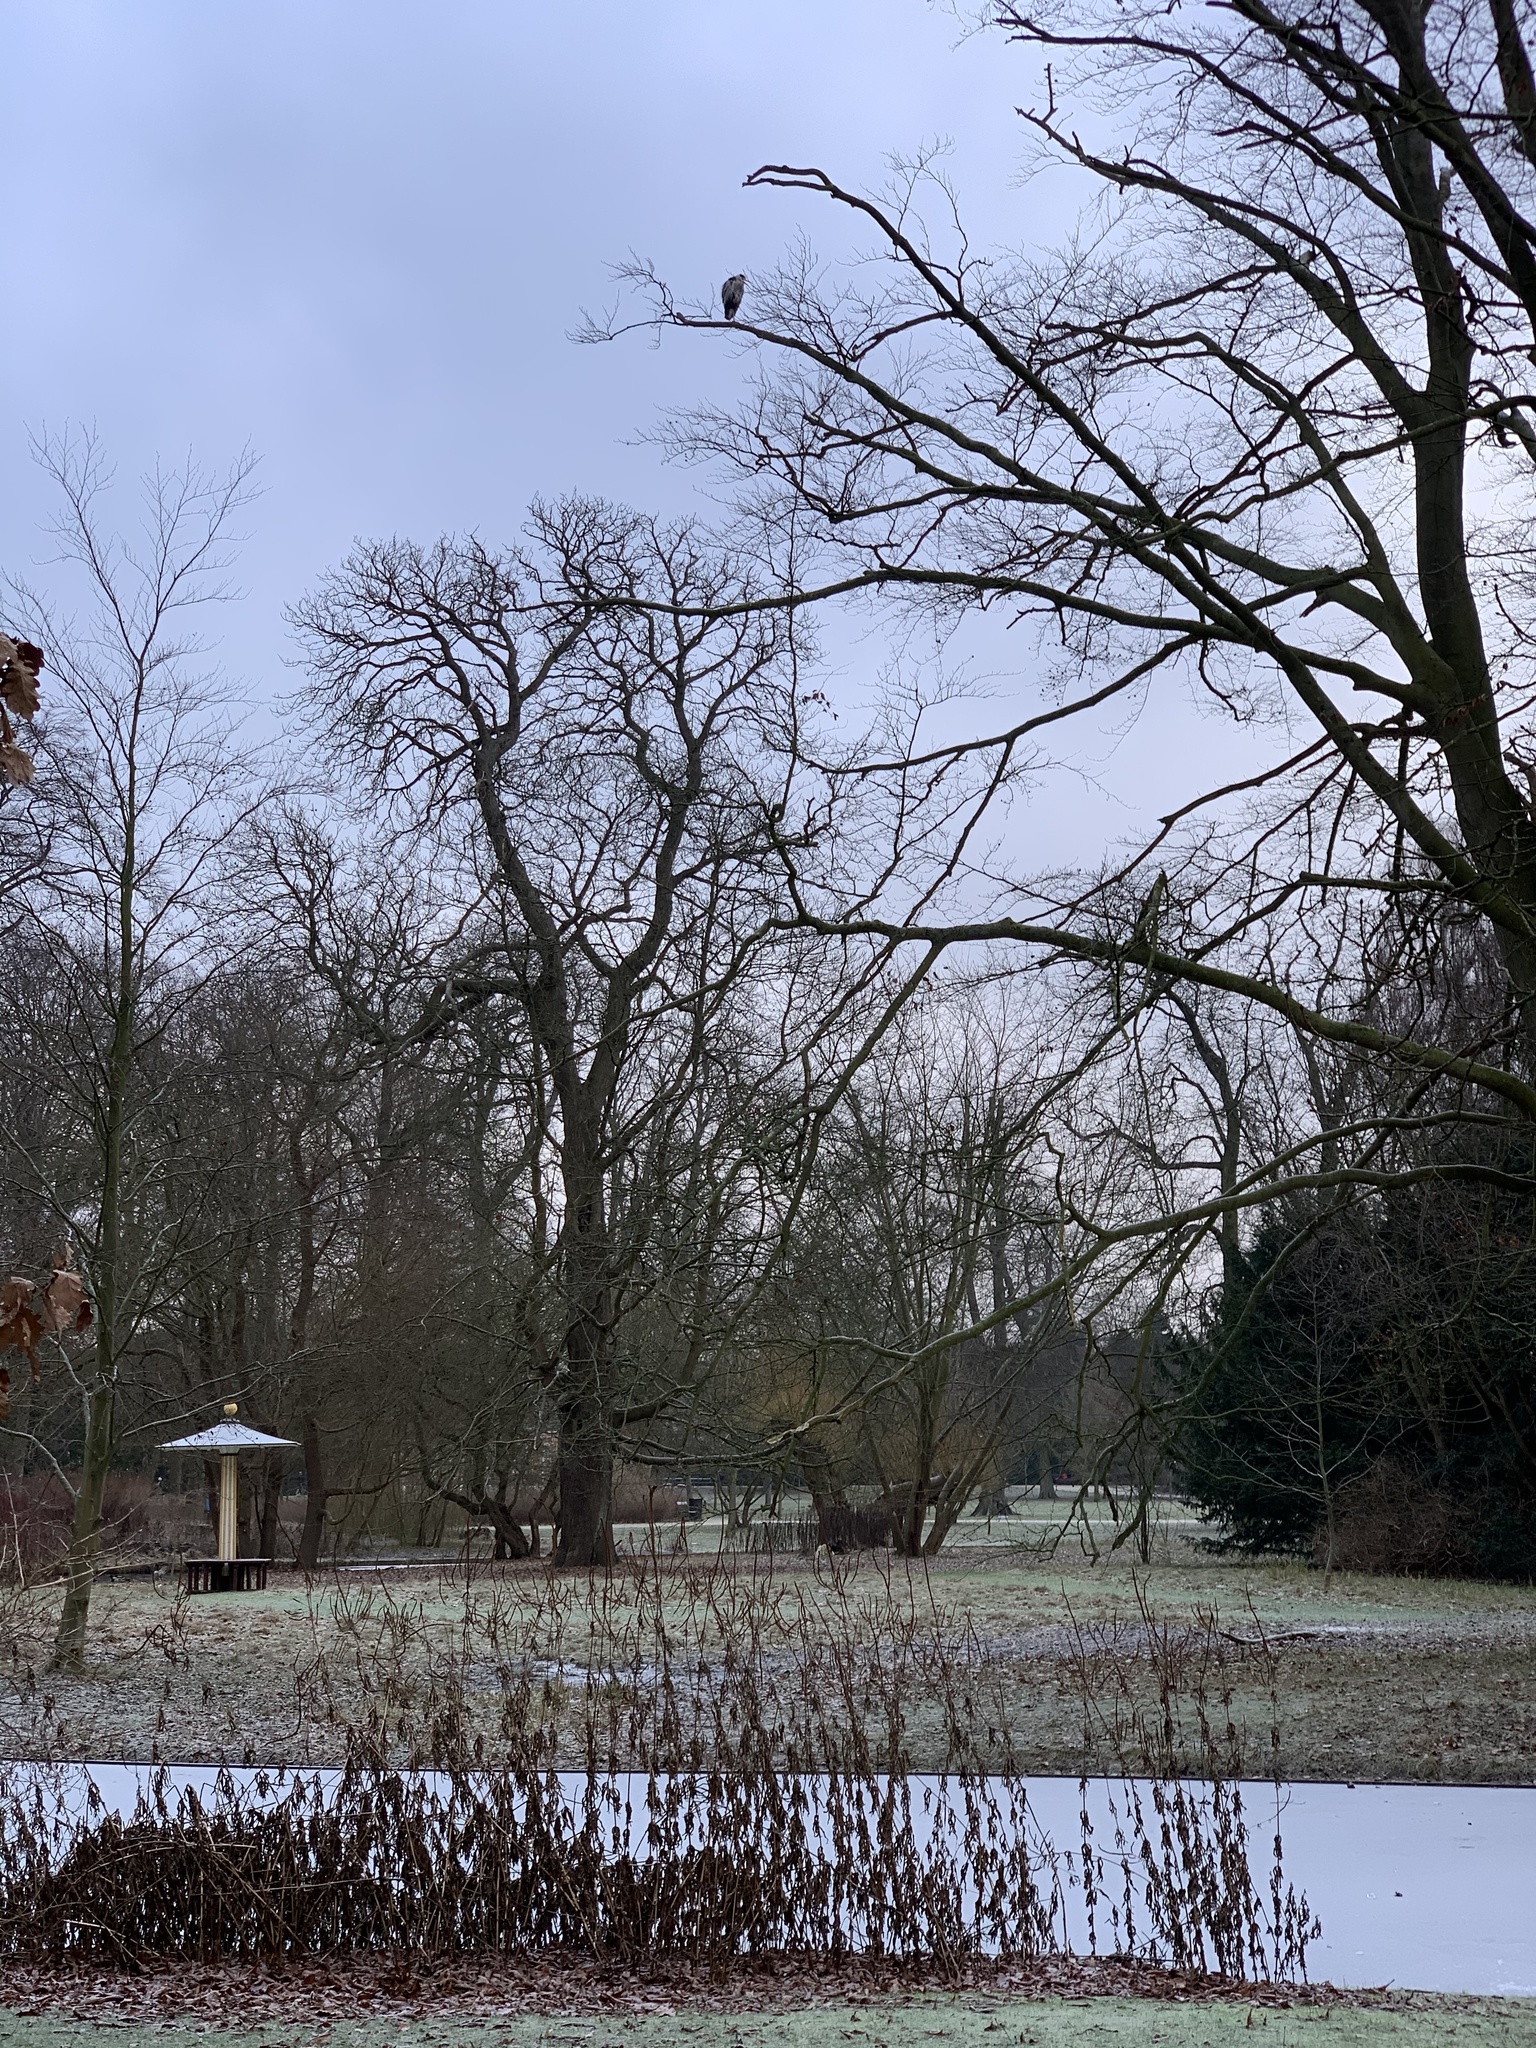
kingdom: Animalia
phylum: Chordata
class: Aves
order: Pelecaniformes
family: Ardeidae
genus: Ardea
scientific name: Ardea cinerea
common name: Grey heron
